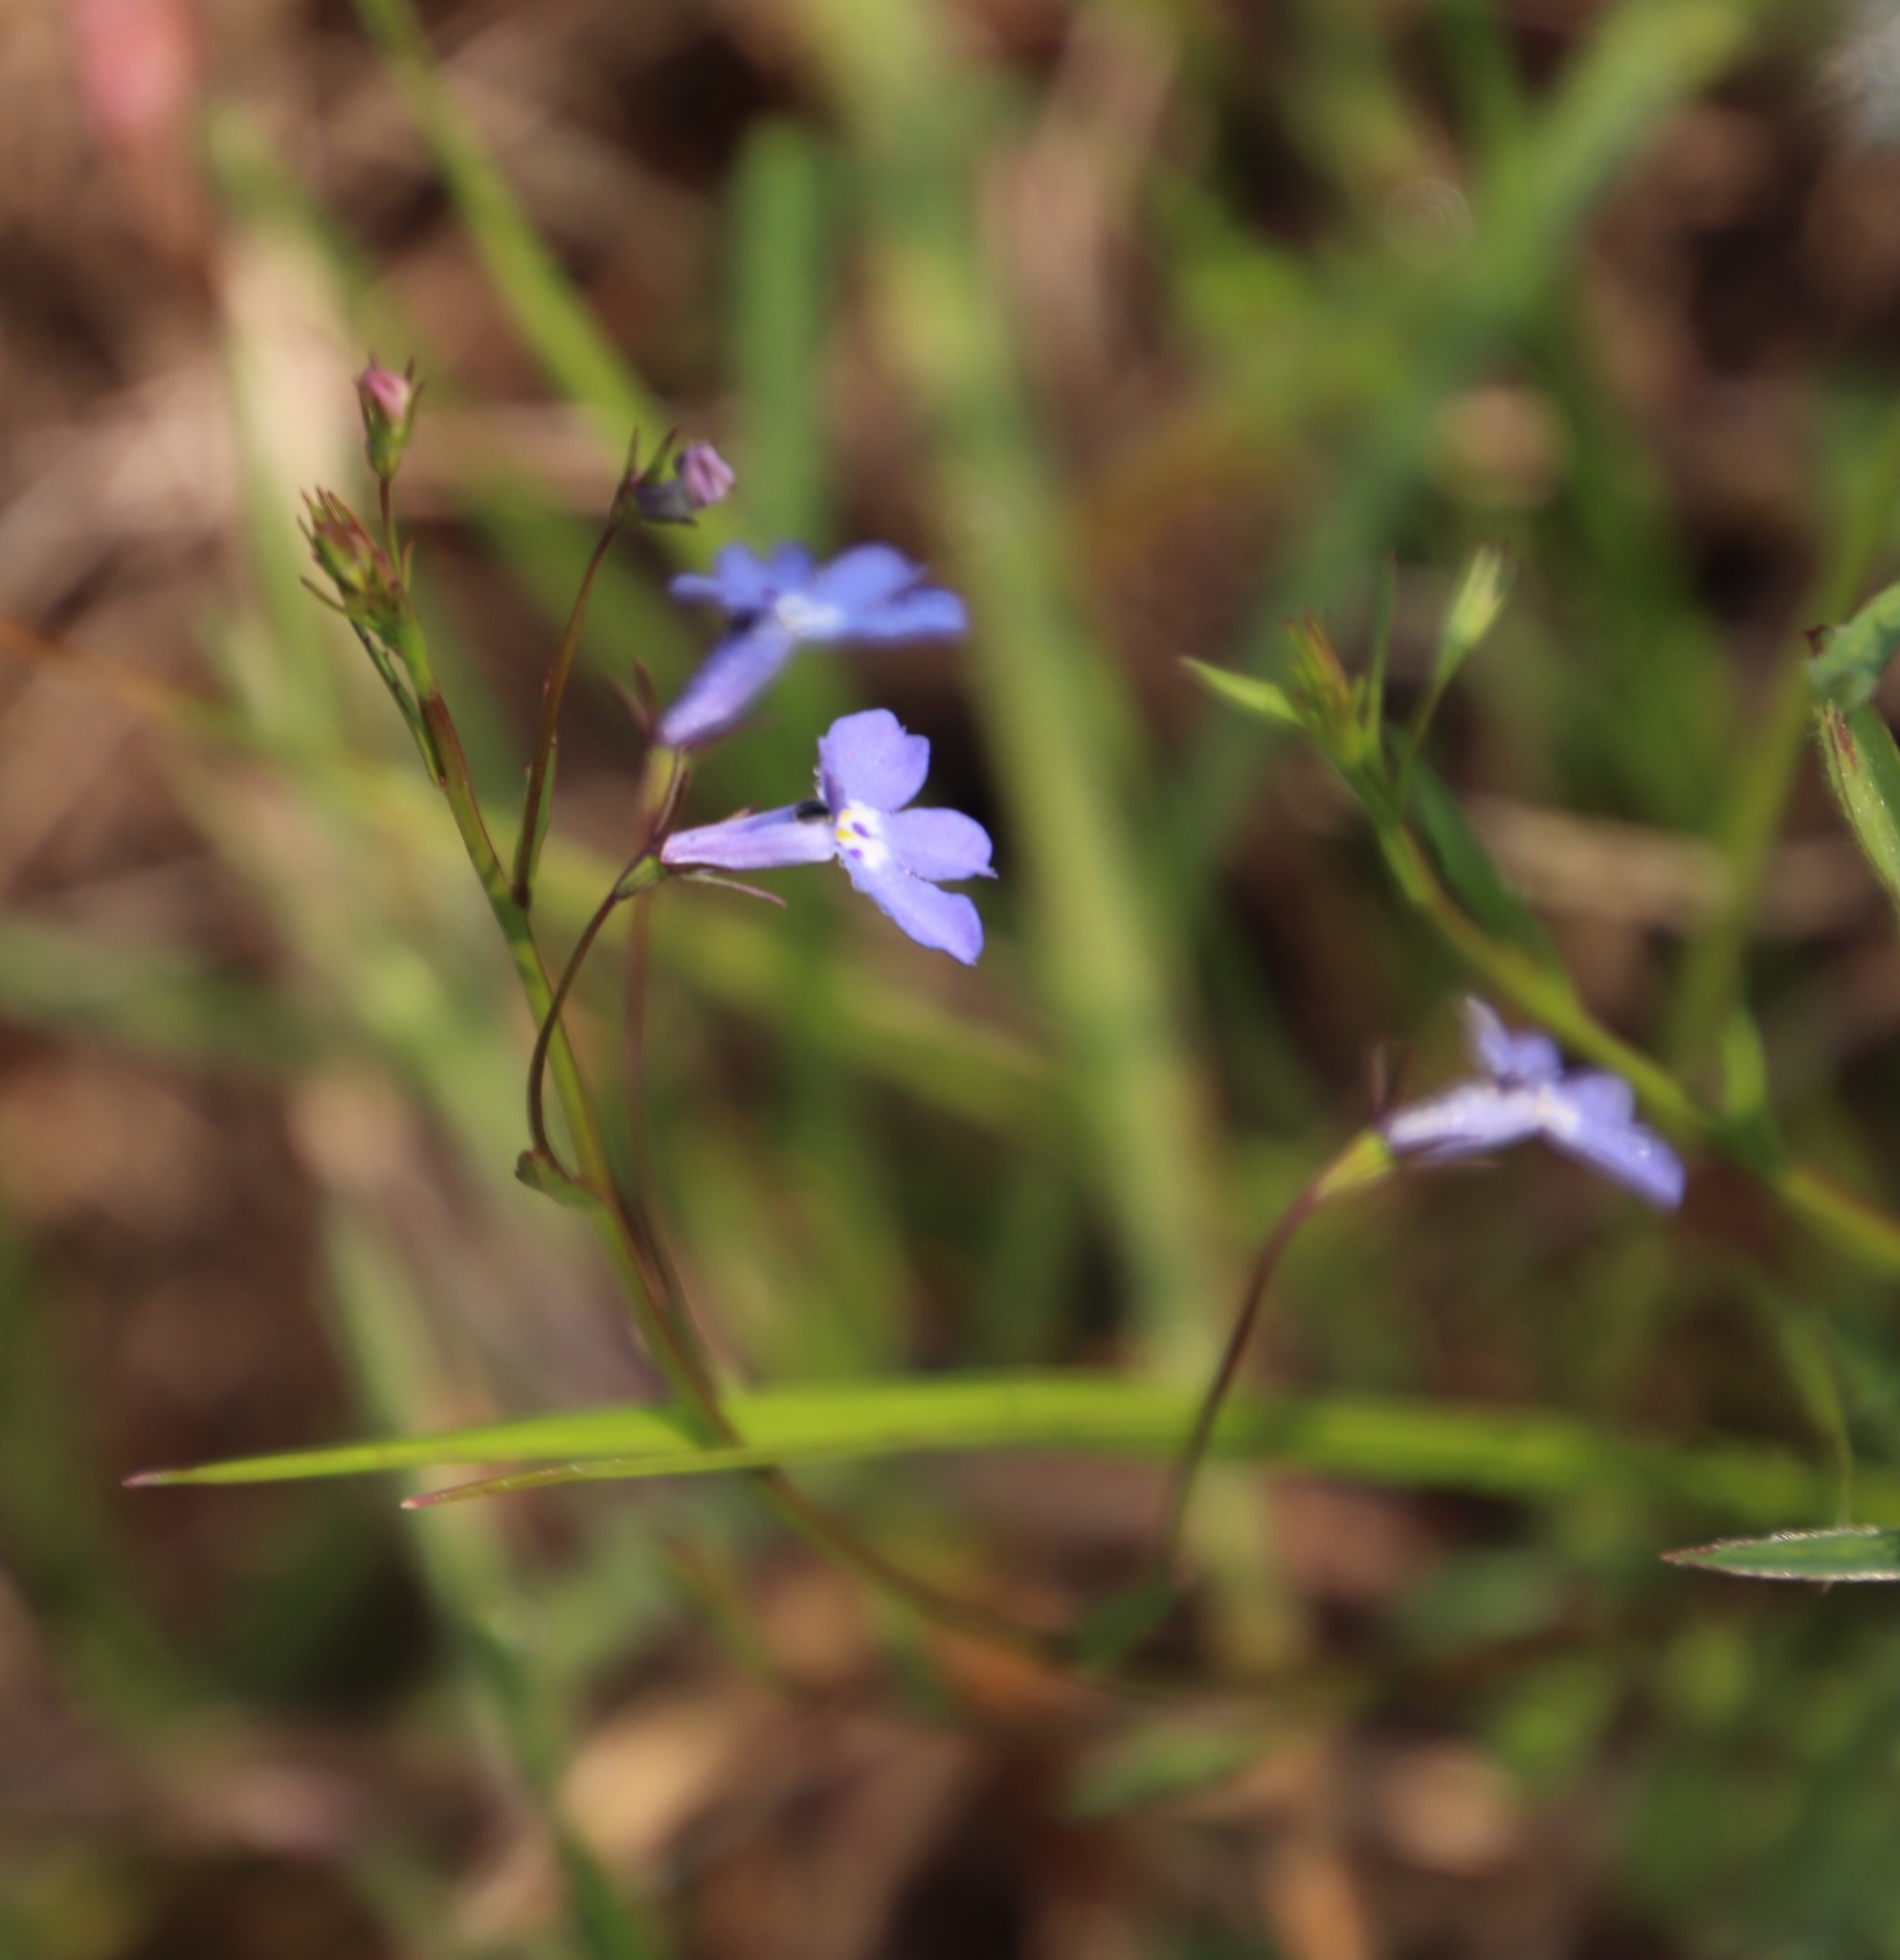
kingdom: Plantae
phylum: Tracheophyta
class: Magnoliopsida
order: Asterales
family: Campanulaceae
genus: Lobelia
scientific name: Lobelia erinus
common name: Edging lobelia
